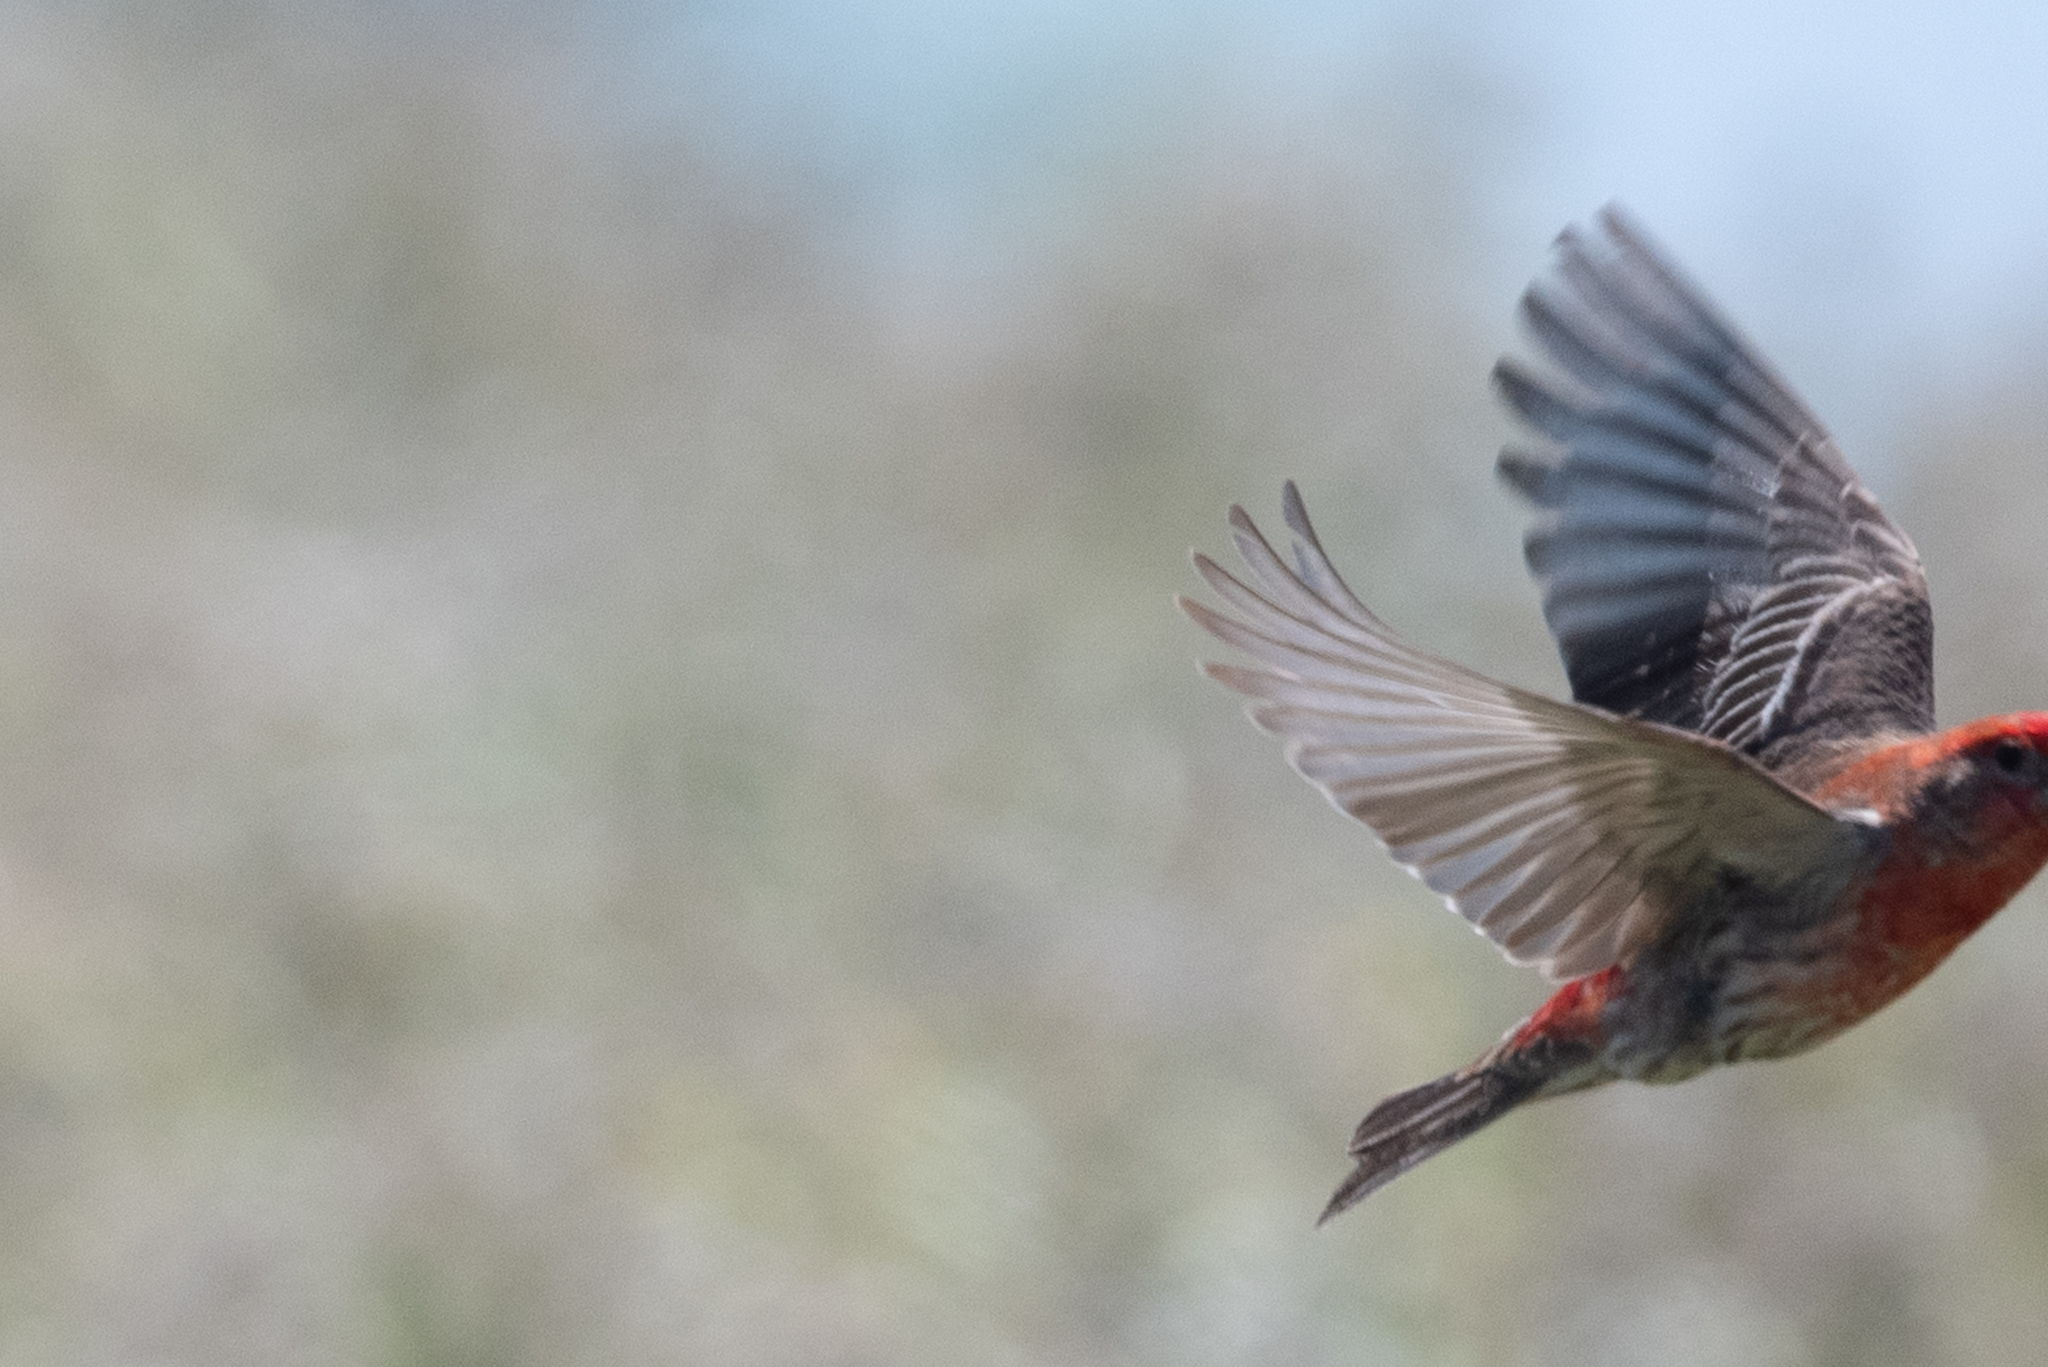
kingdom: Animalia
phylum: Chordata
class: Aves
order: Passeriformes
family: Fringillidae
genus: Haemorhous
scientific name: Haemorhous mexicanus
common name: House finch
